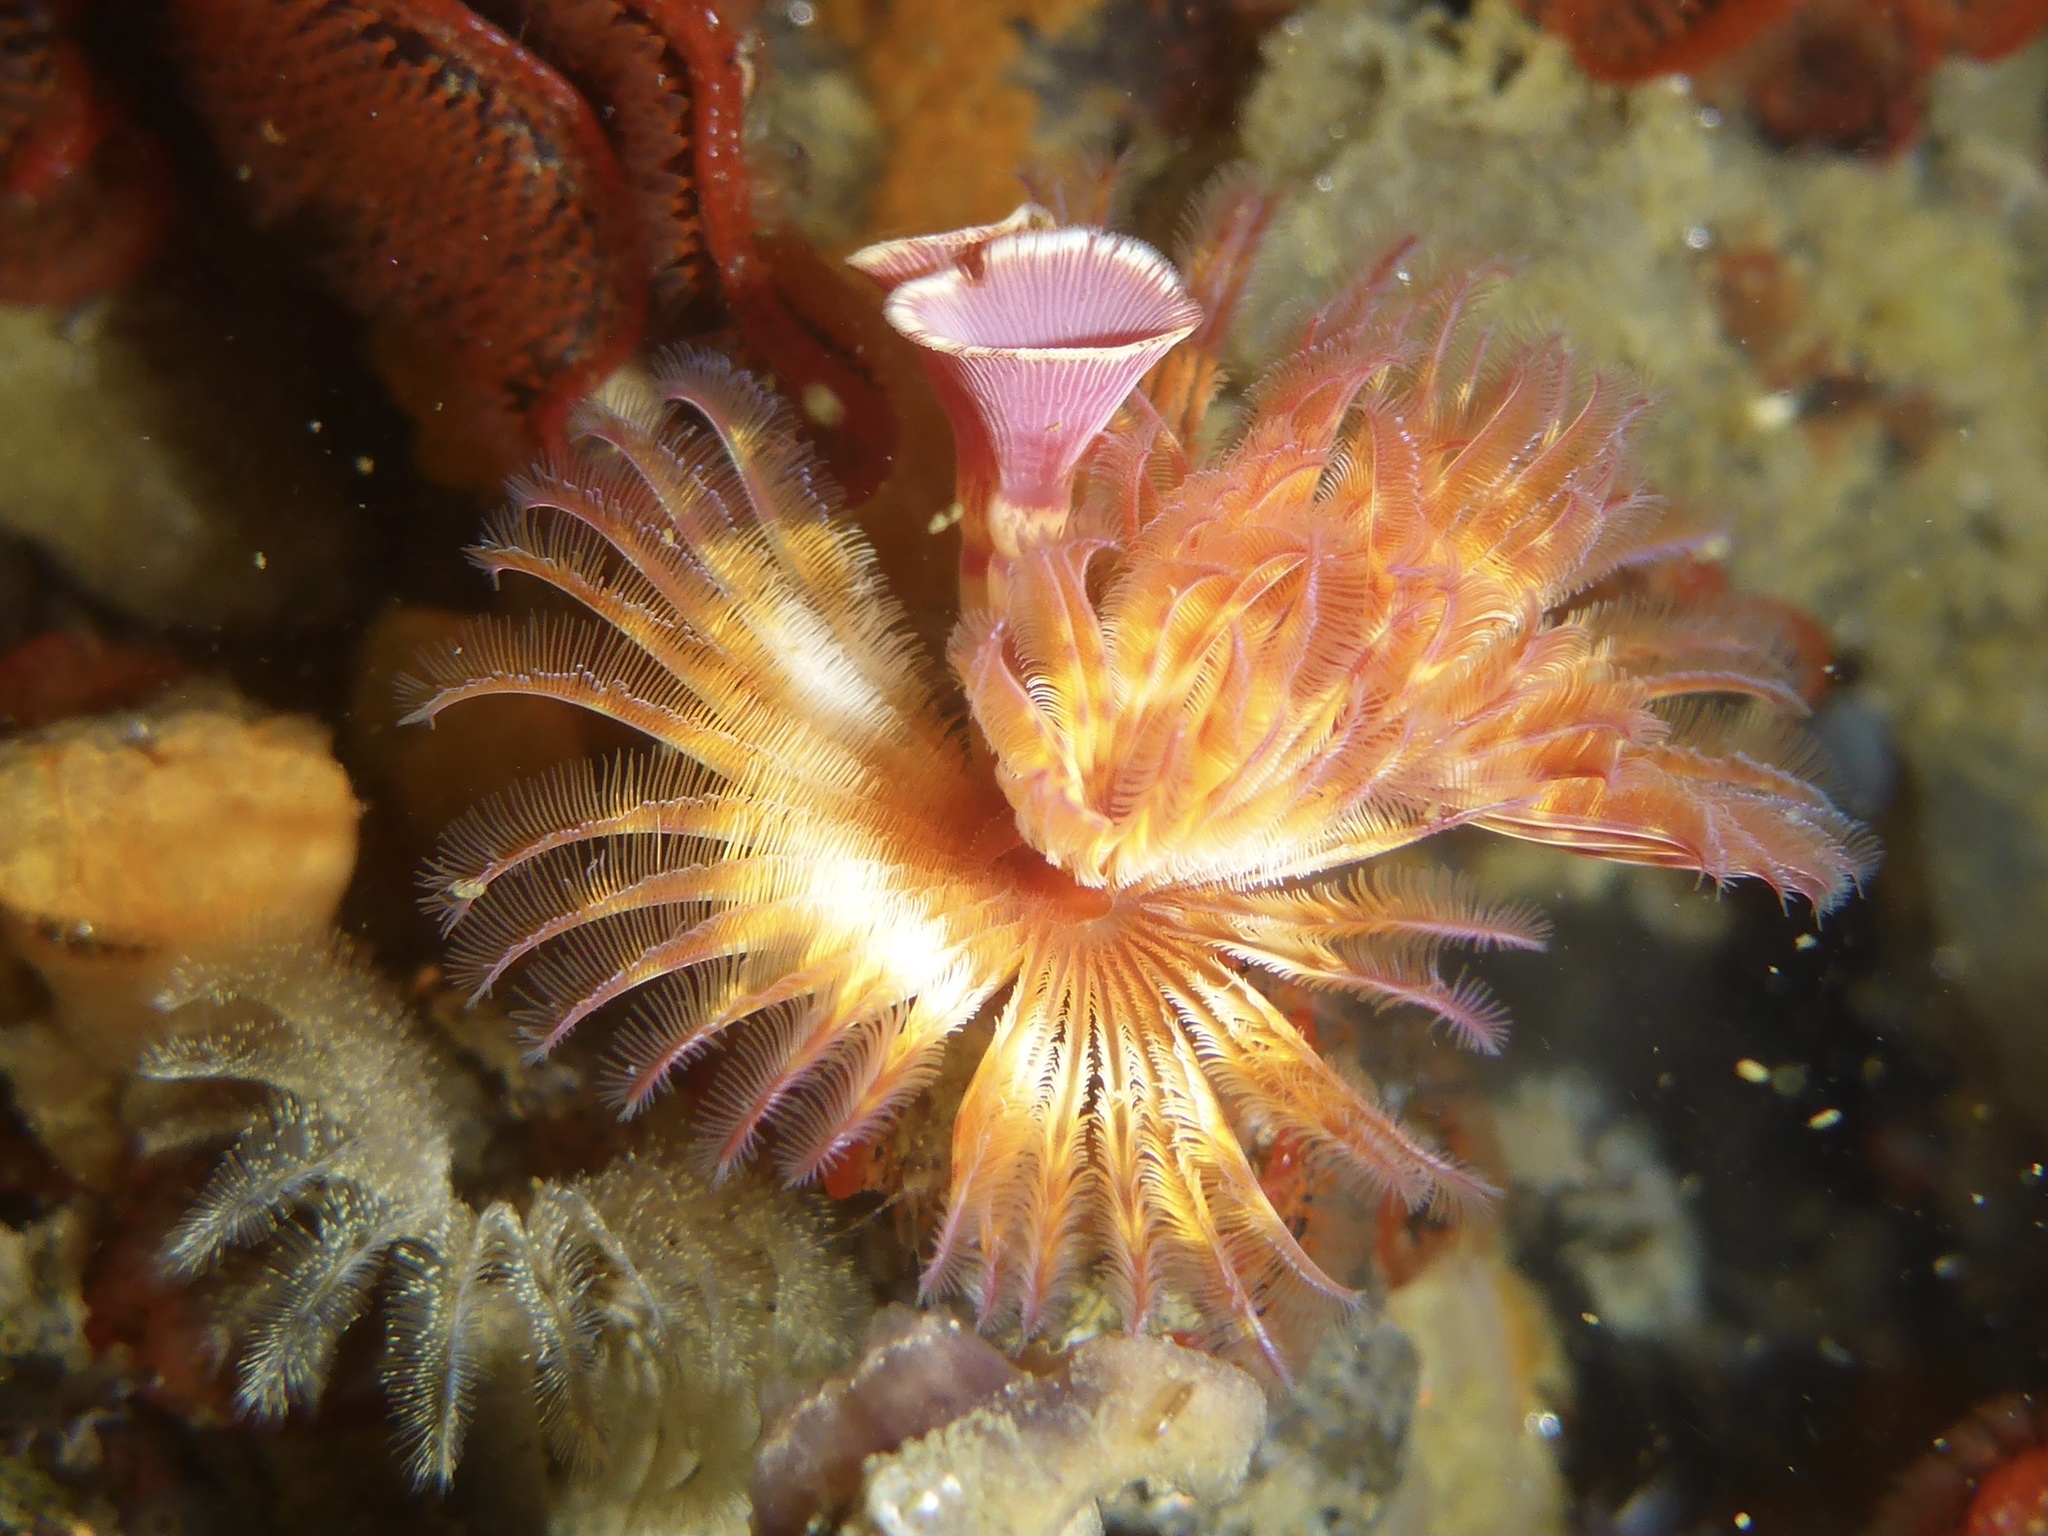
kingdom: Animalia
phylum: Annelida
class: Polychaeta
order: Sabellida
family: Serpulidae
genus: Serpula
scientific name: Serpula columbiana
